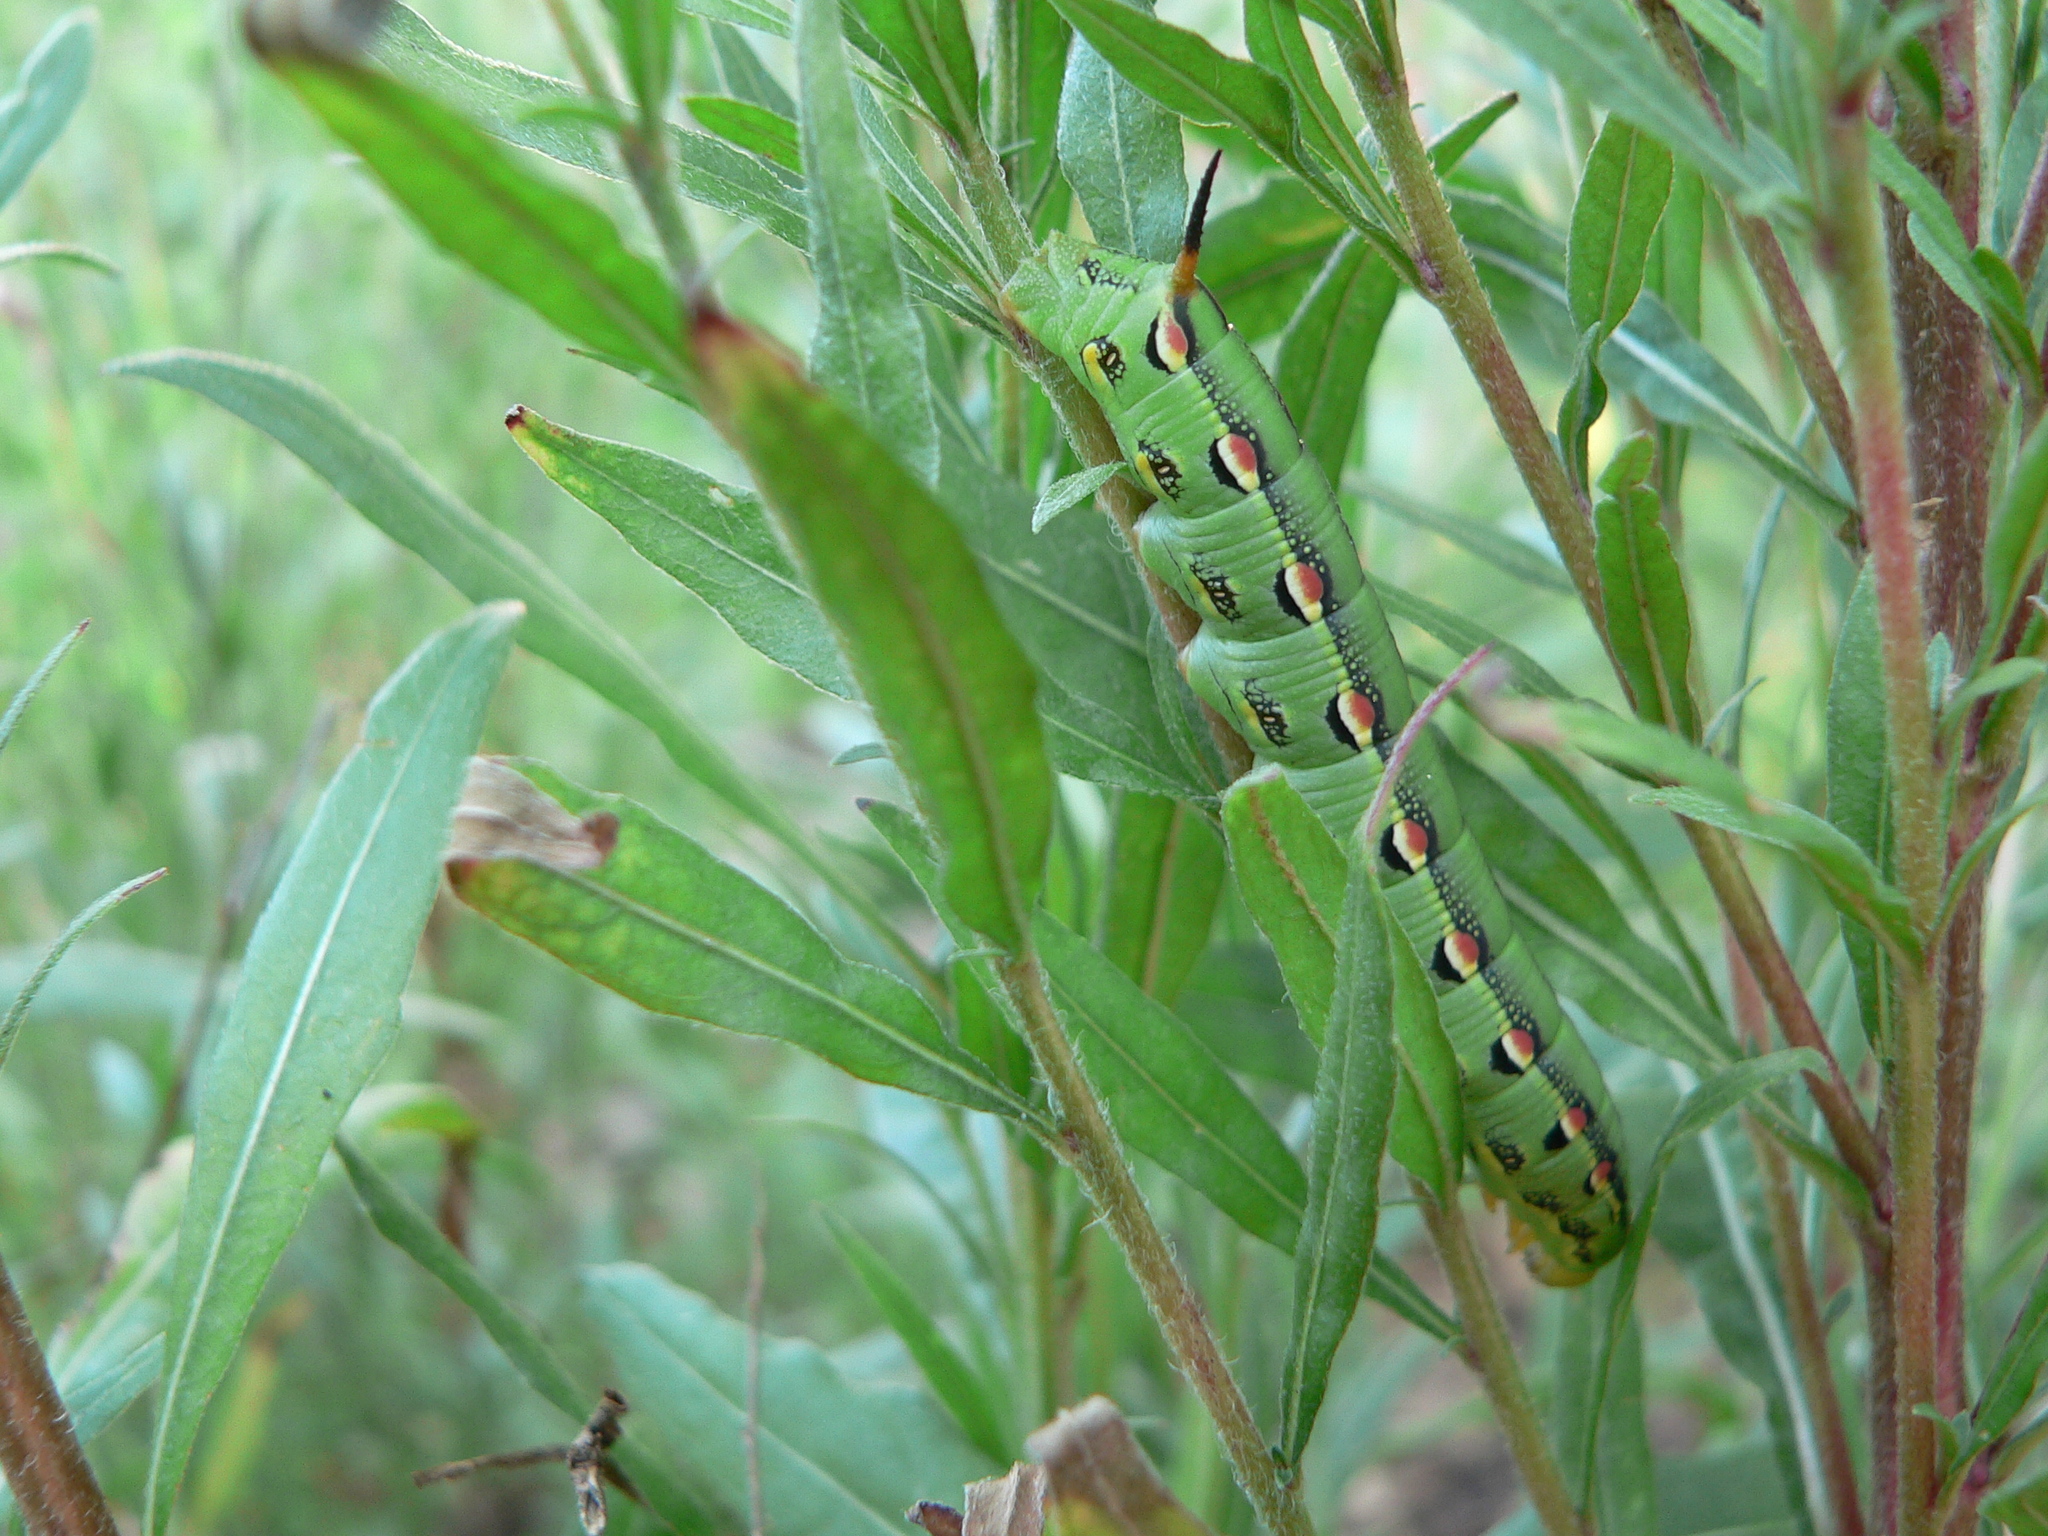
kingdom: Animalia
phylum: Arthropoda
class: Insecta
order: Lepidoptera
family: Sphingidae
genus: Hyles
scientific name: Hyles lineata
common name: White-lined sphinx
